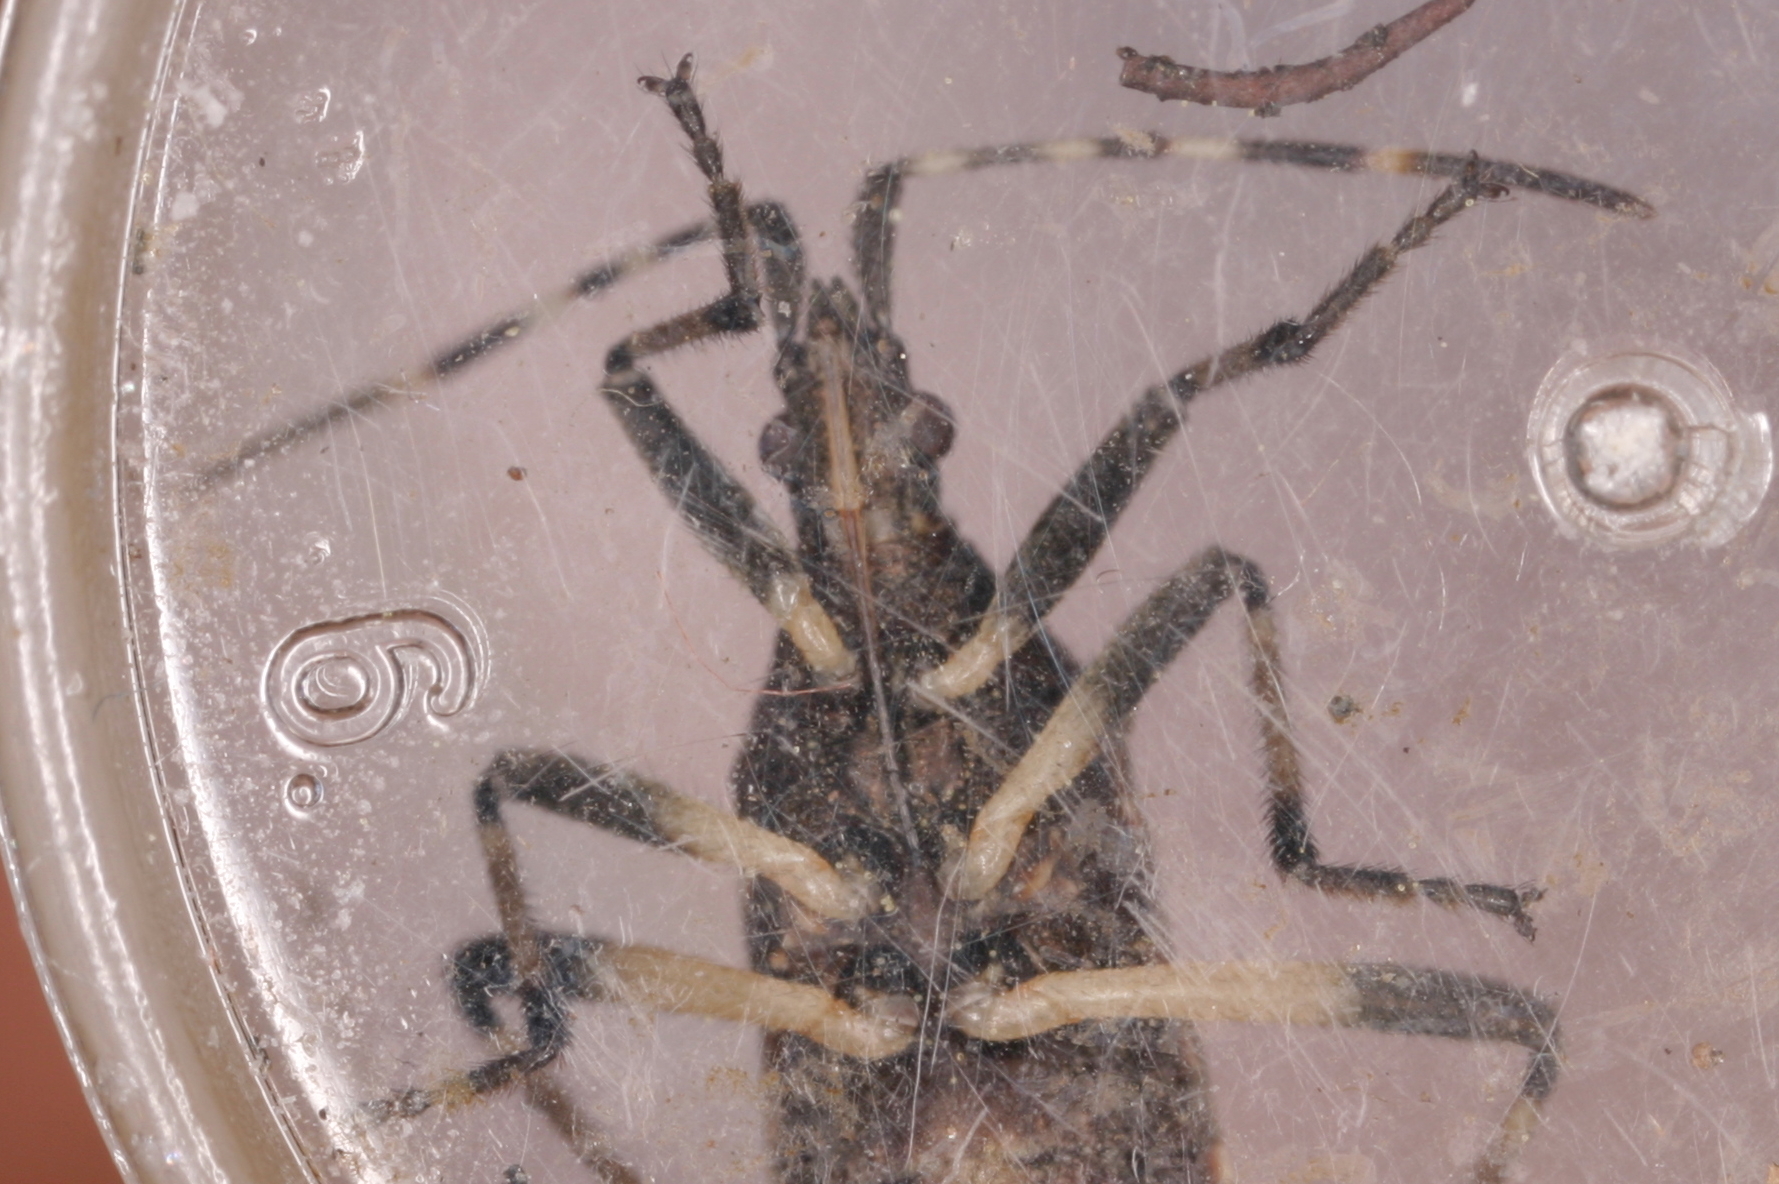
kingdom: Animalia
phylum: Arthropoda
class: Insecta
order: Hemiptera
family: Stenocephalidae
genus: Dicranocephalus
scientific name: Dicranocephalus agilis
